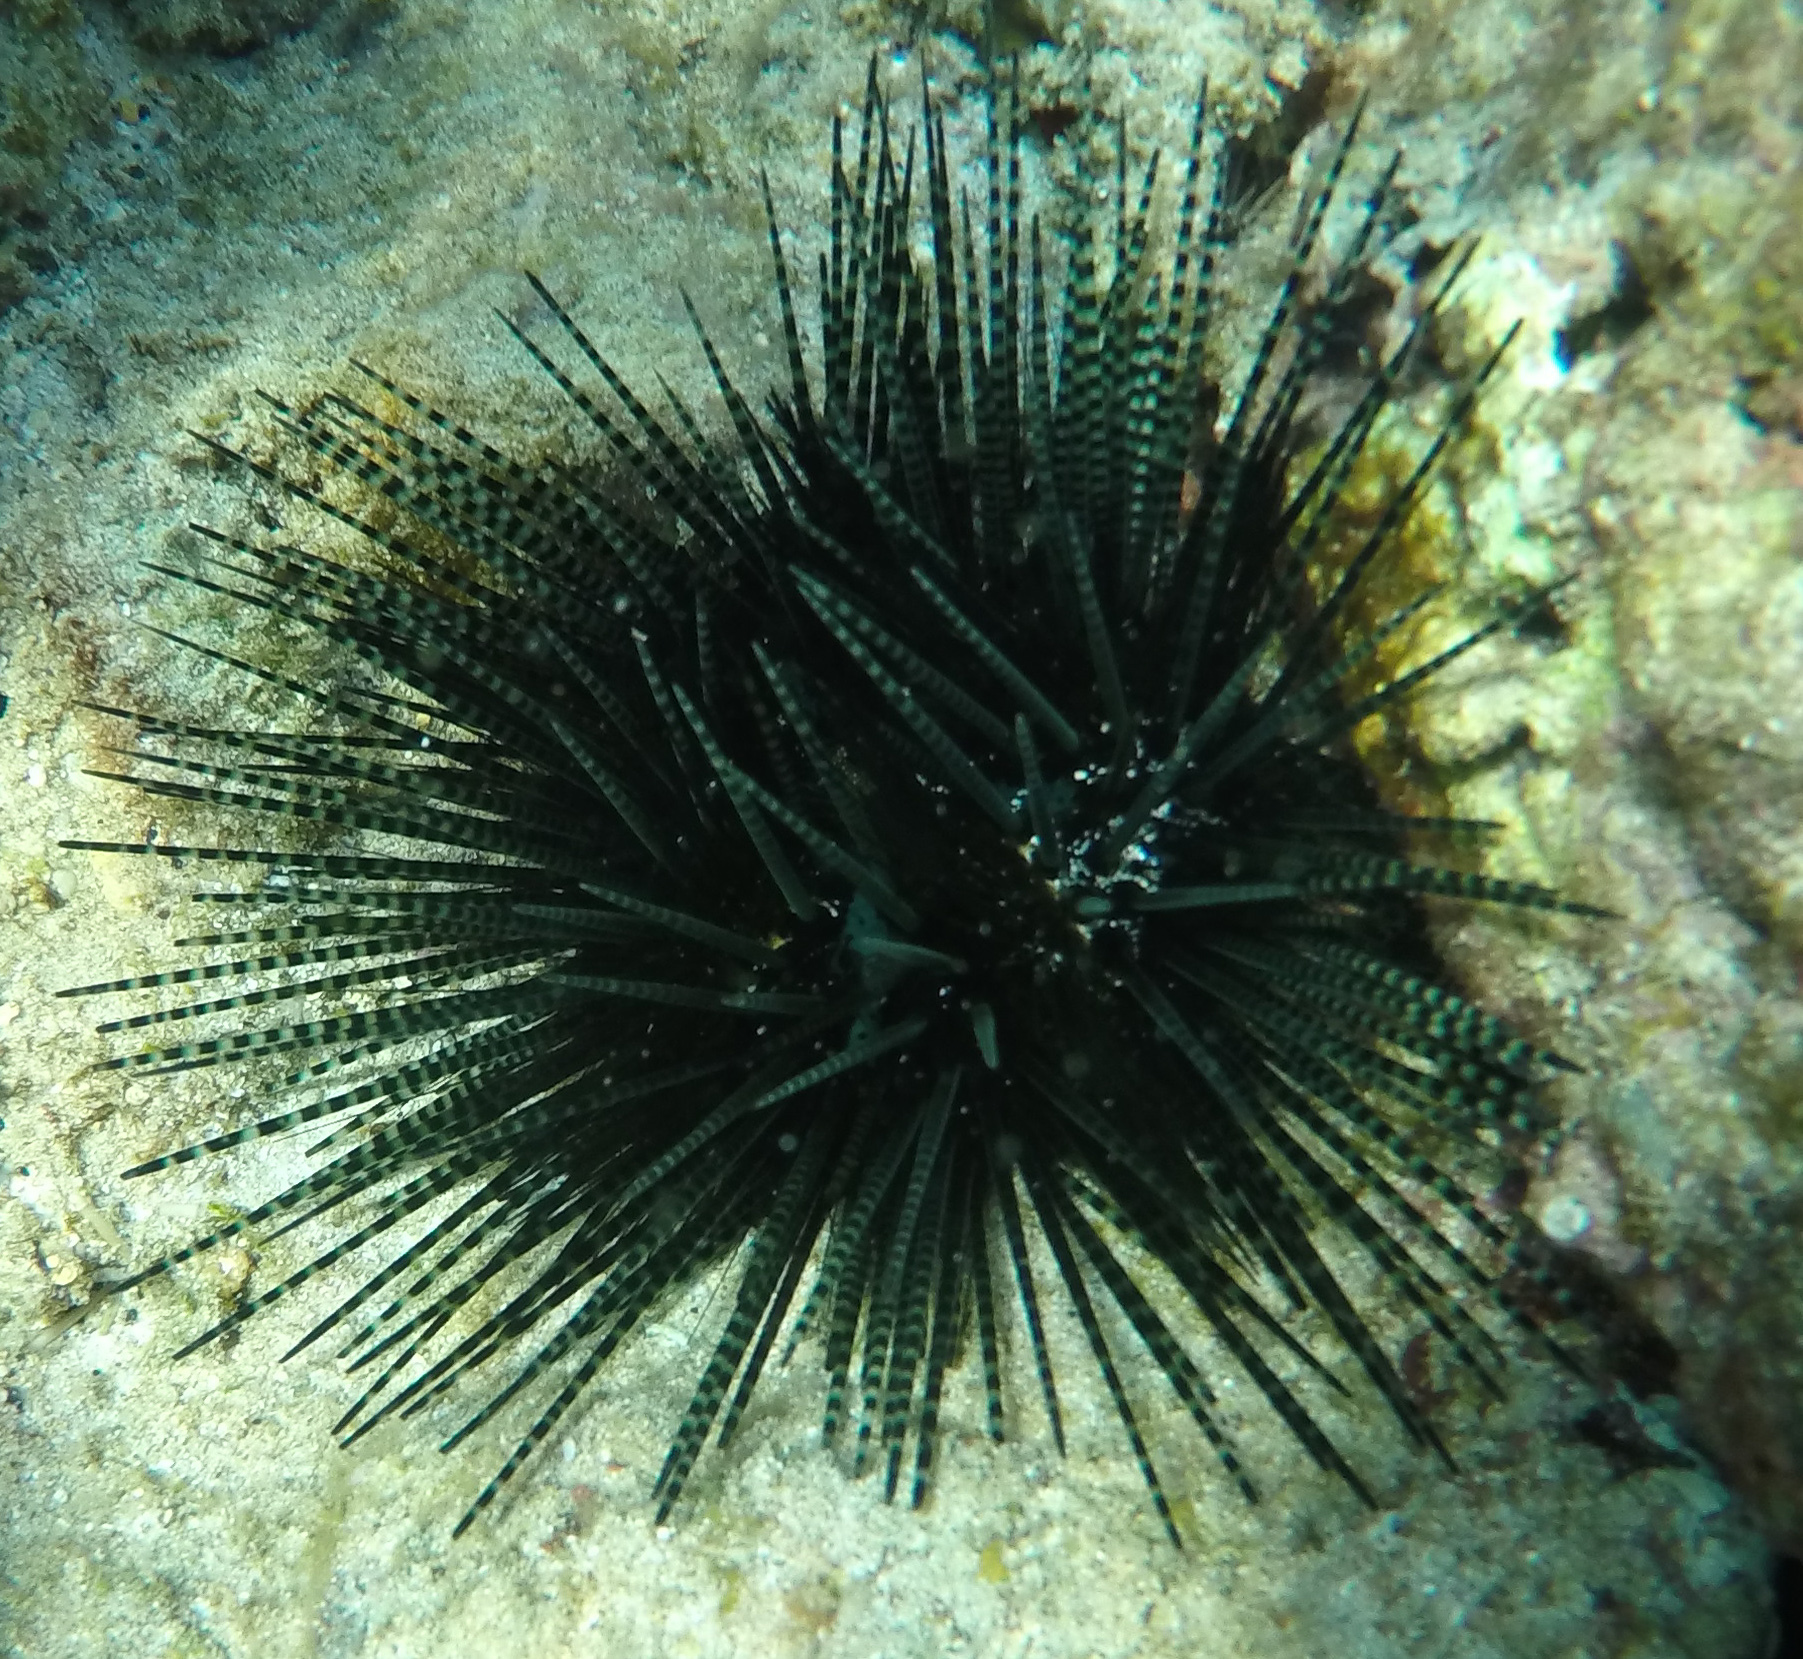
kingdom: Animalia
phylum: Echinodermata
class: Echinoidea
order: Diadematoida
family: Diadematidae
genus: Echinothrix
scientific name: Echinothrix calamaris
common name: Banded sea urchin
